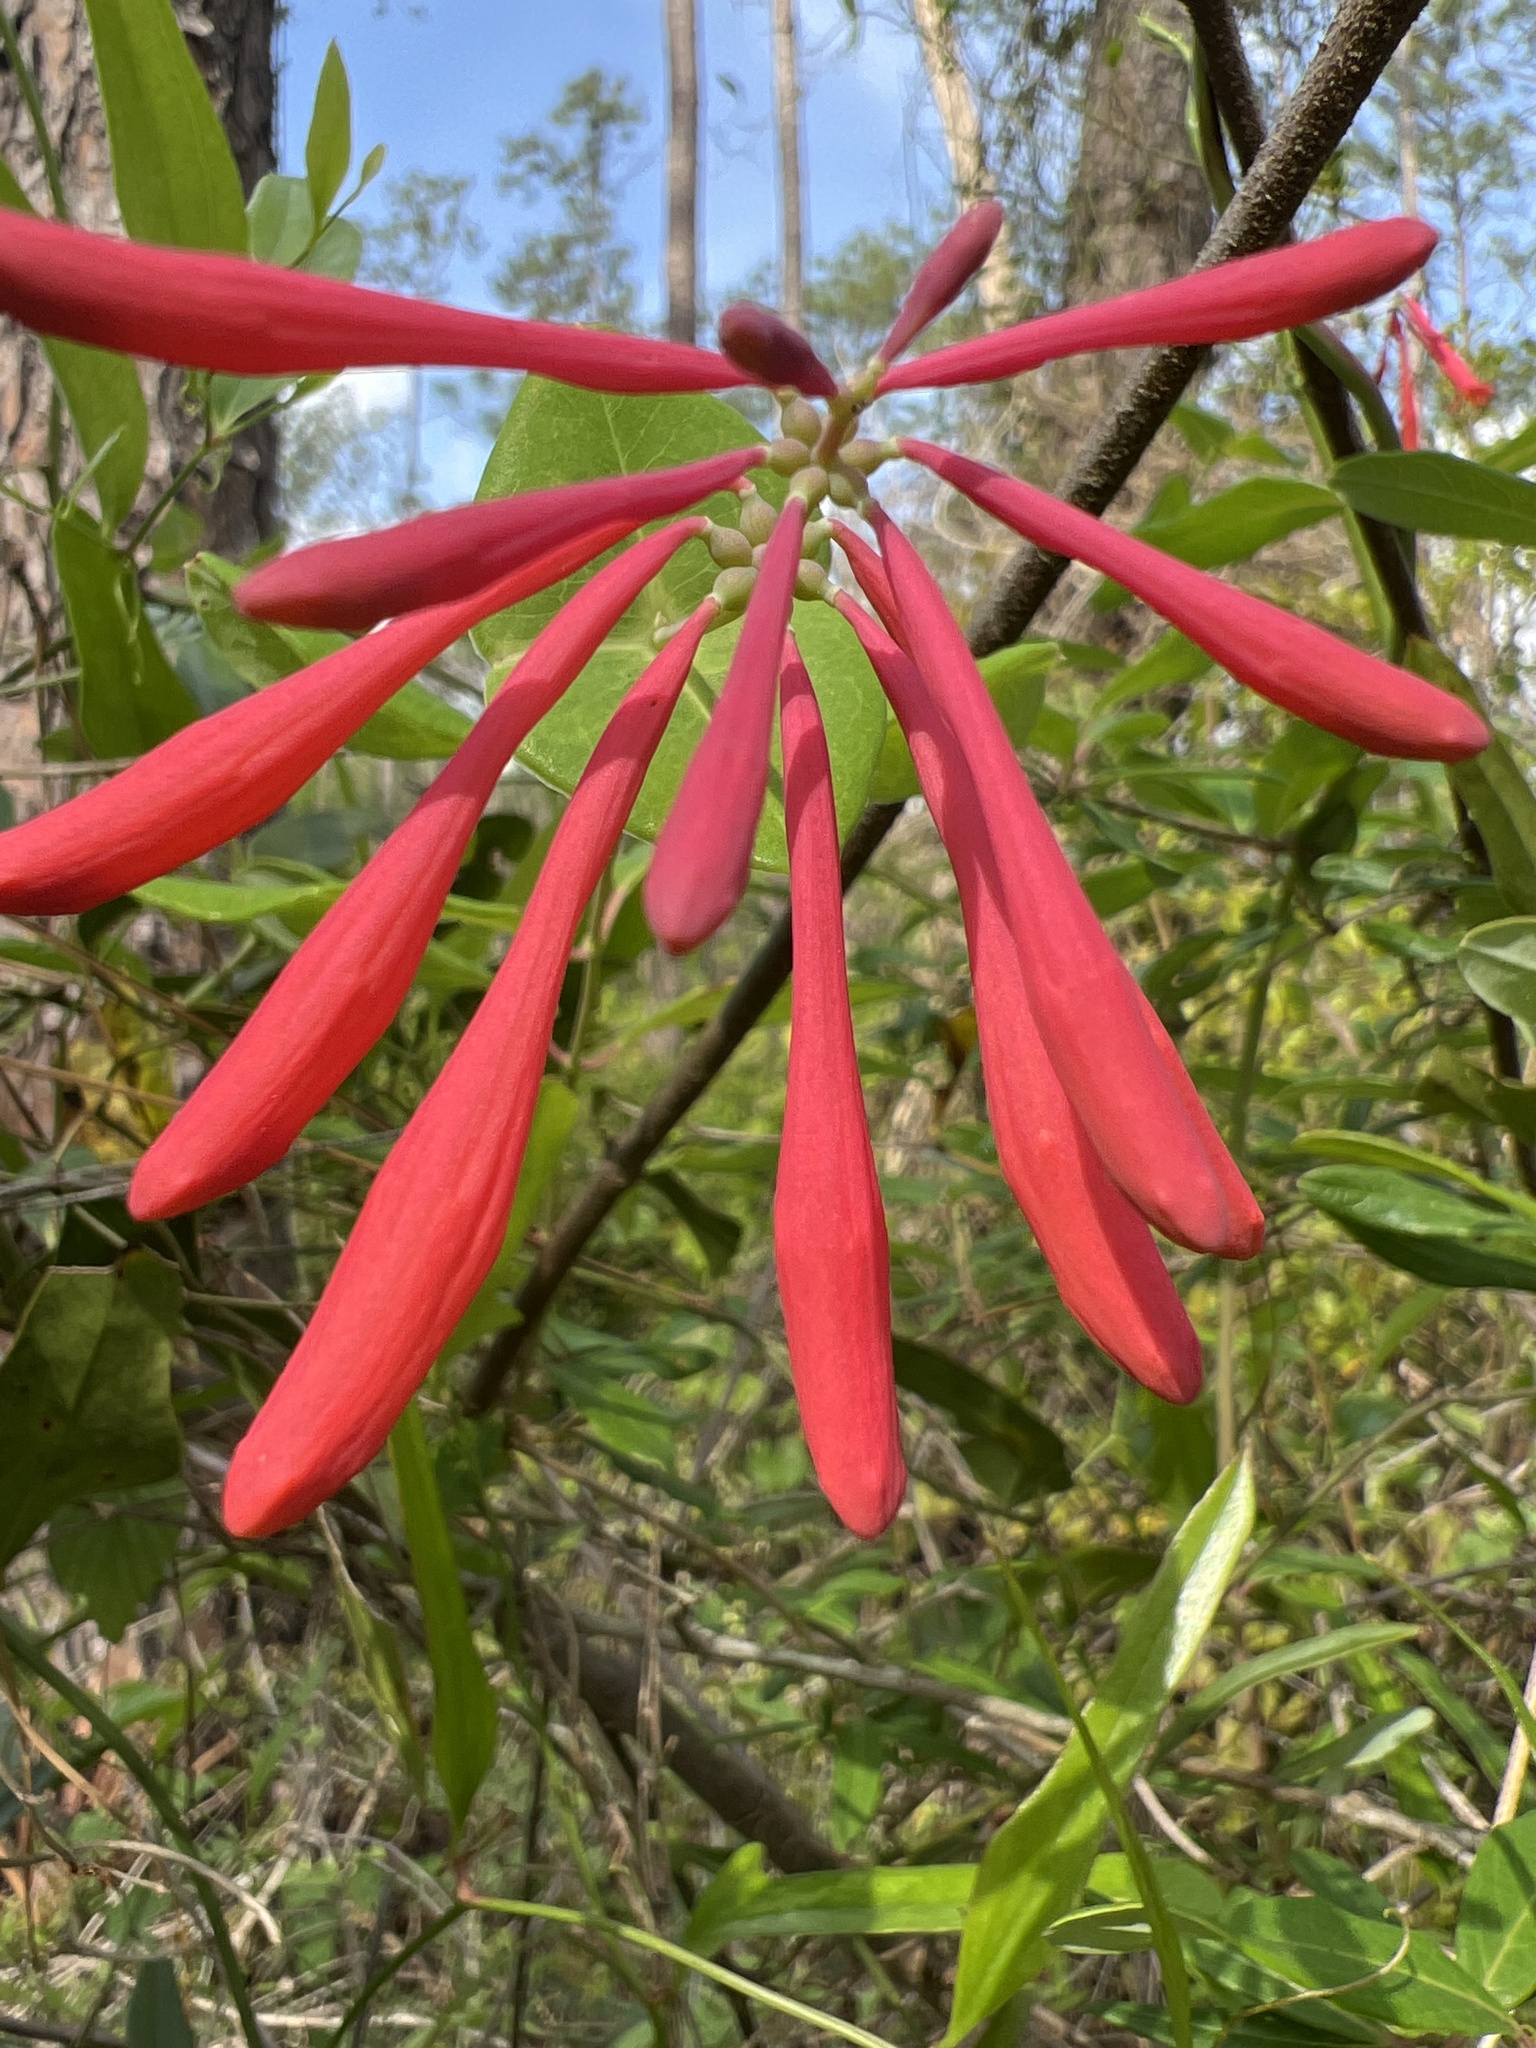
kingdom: Plantae
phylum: Tracheophyta
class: Magnoliopsida
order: Dipsacales
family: Caprifoliaceae
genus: Lonicera
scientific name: Lonicera sempervirens
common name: Coral honeysuckle
